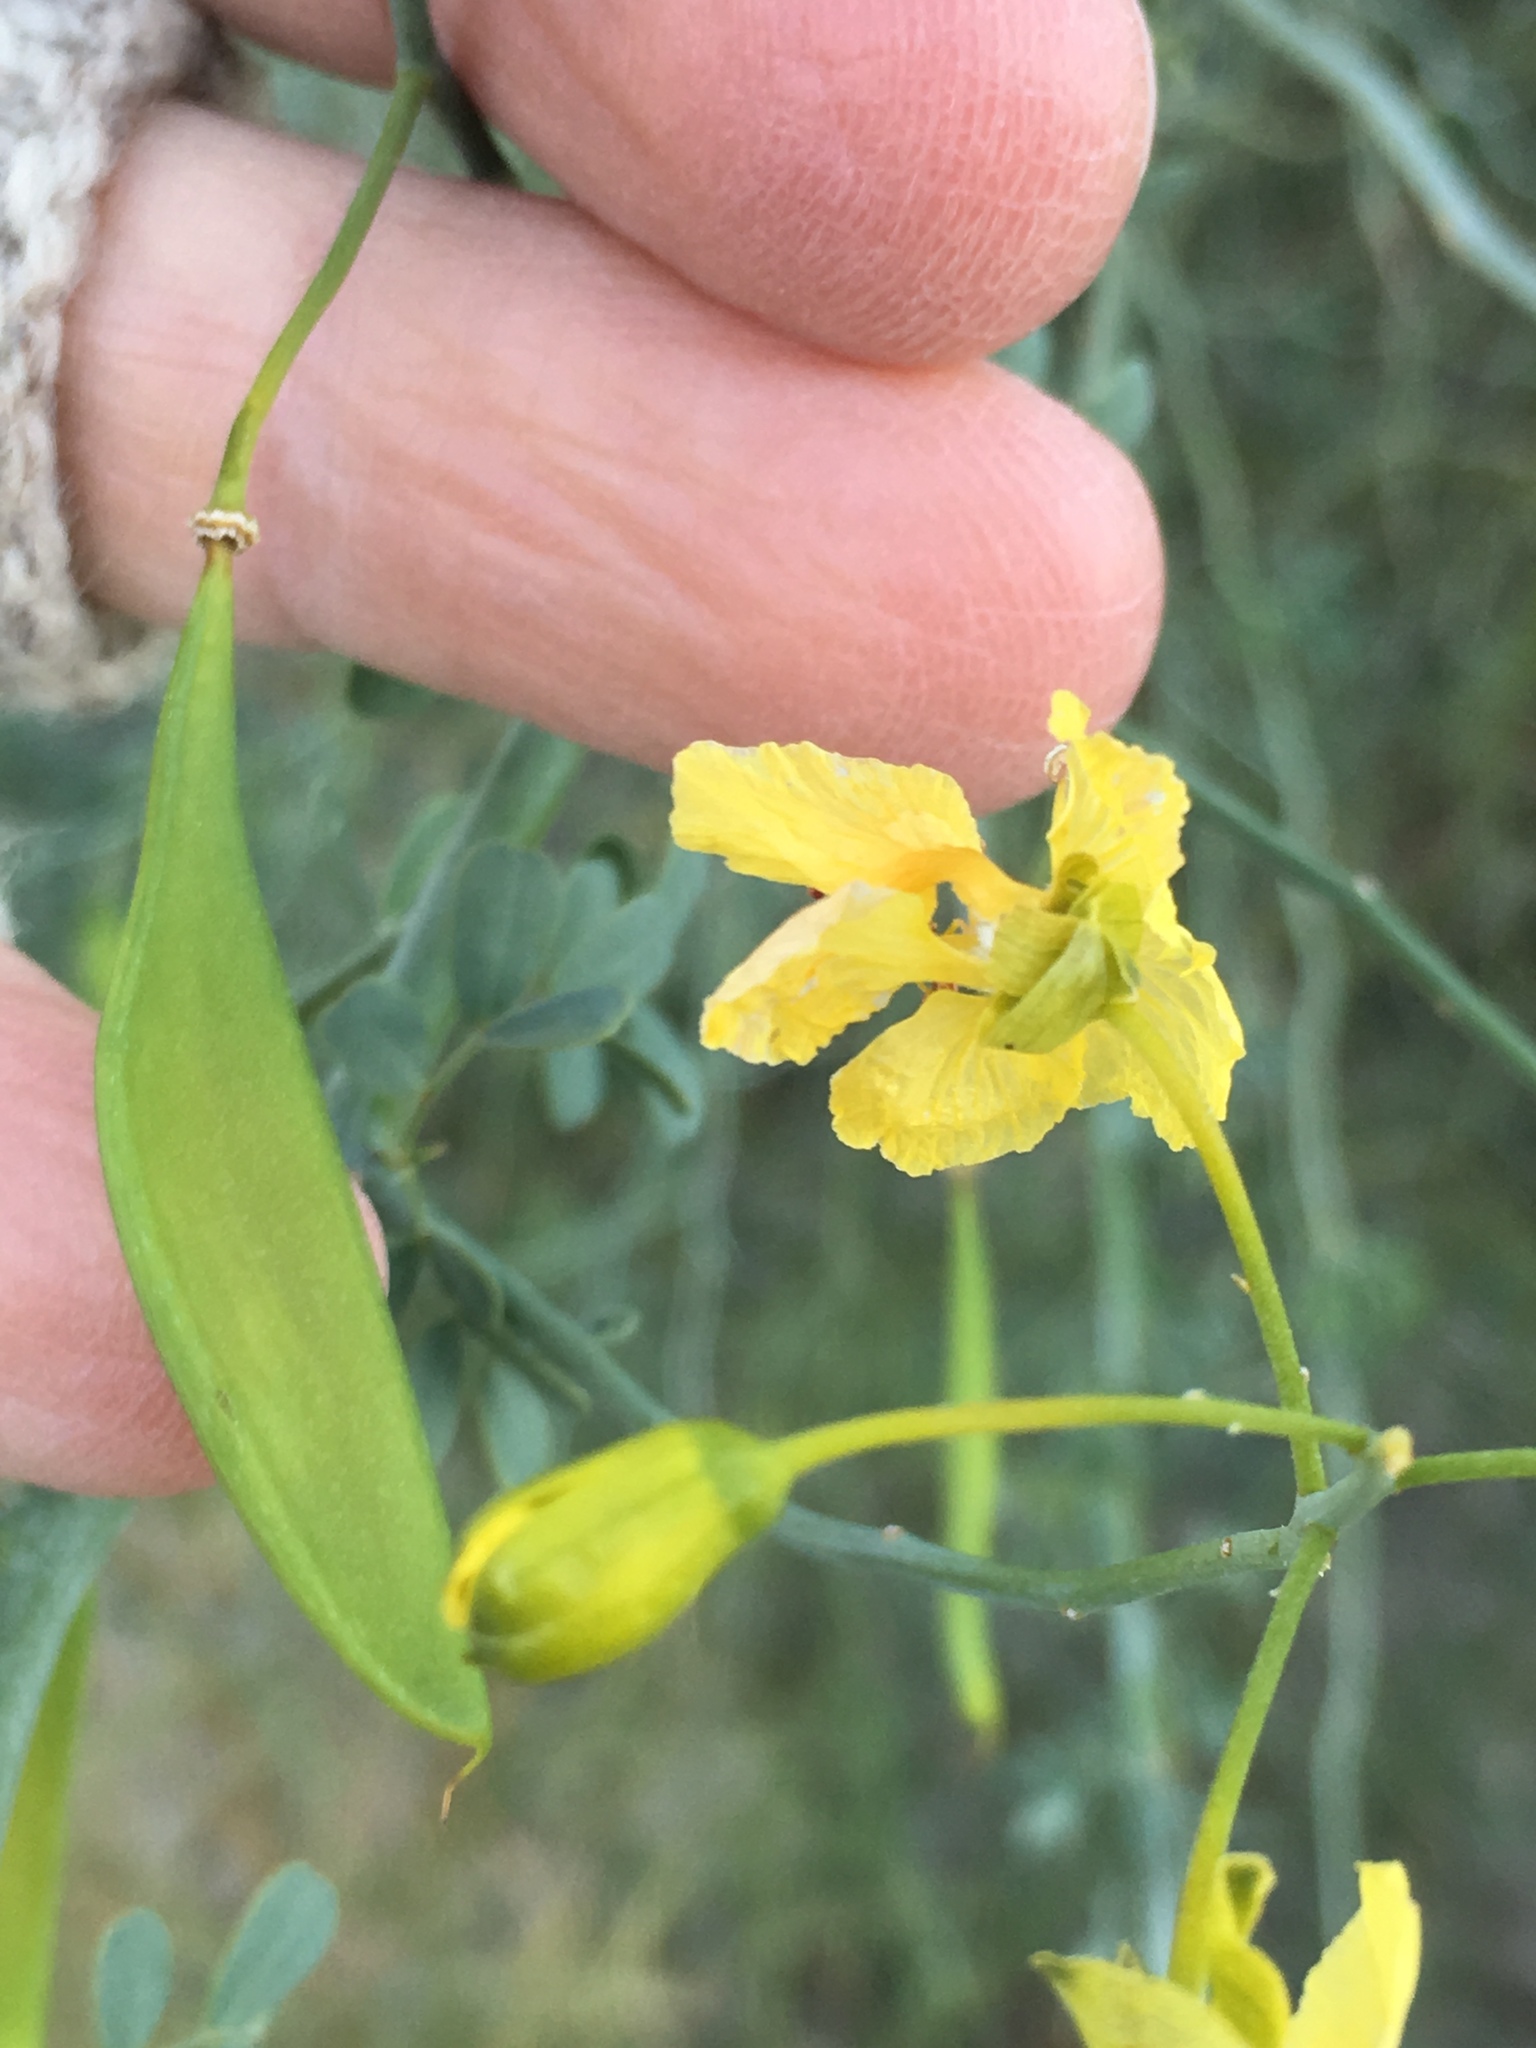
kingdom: Plantae
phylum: Tracheophyta
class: Magnoliopsida
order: Fabales
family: Fabaceae
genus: Parkinsonia
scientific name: Parkinsonia florida
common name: Blue paloverde
